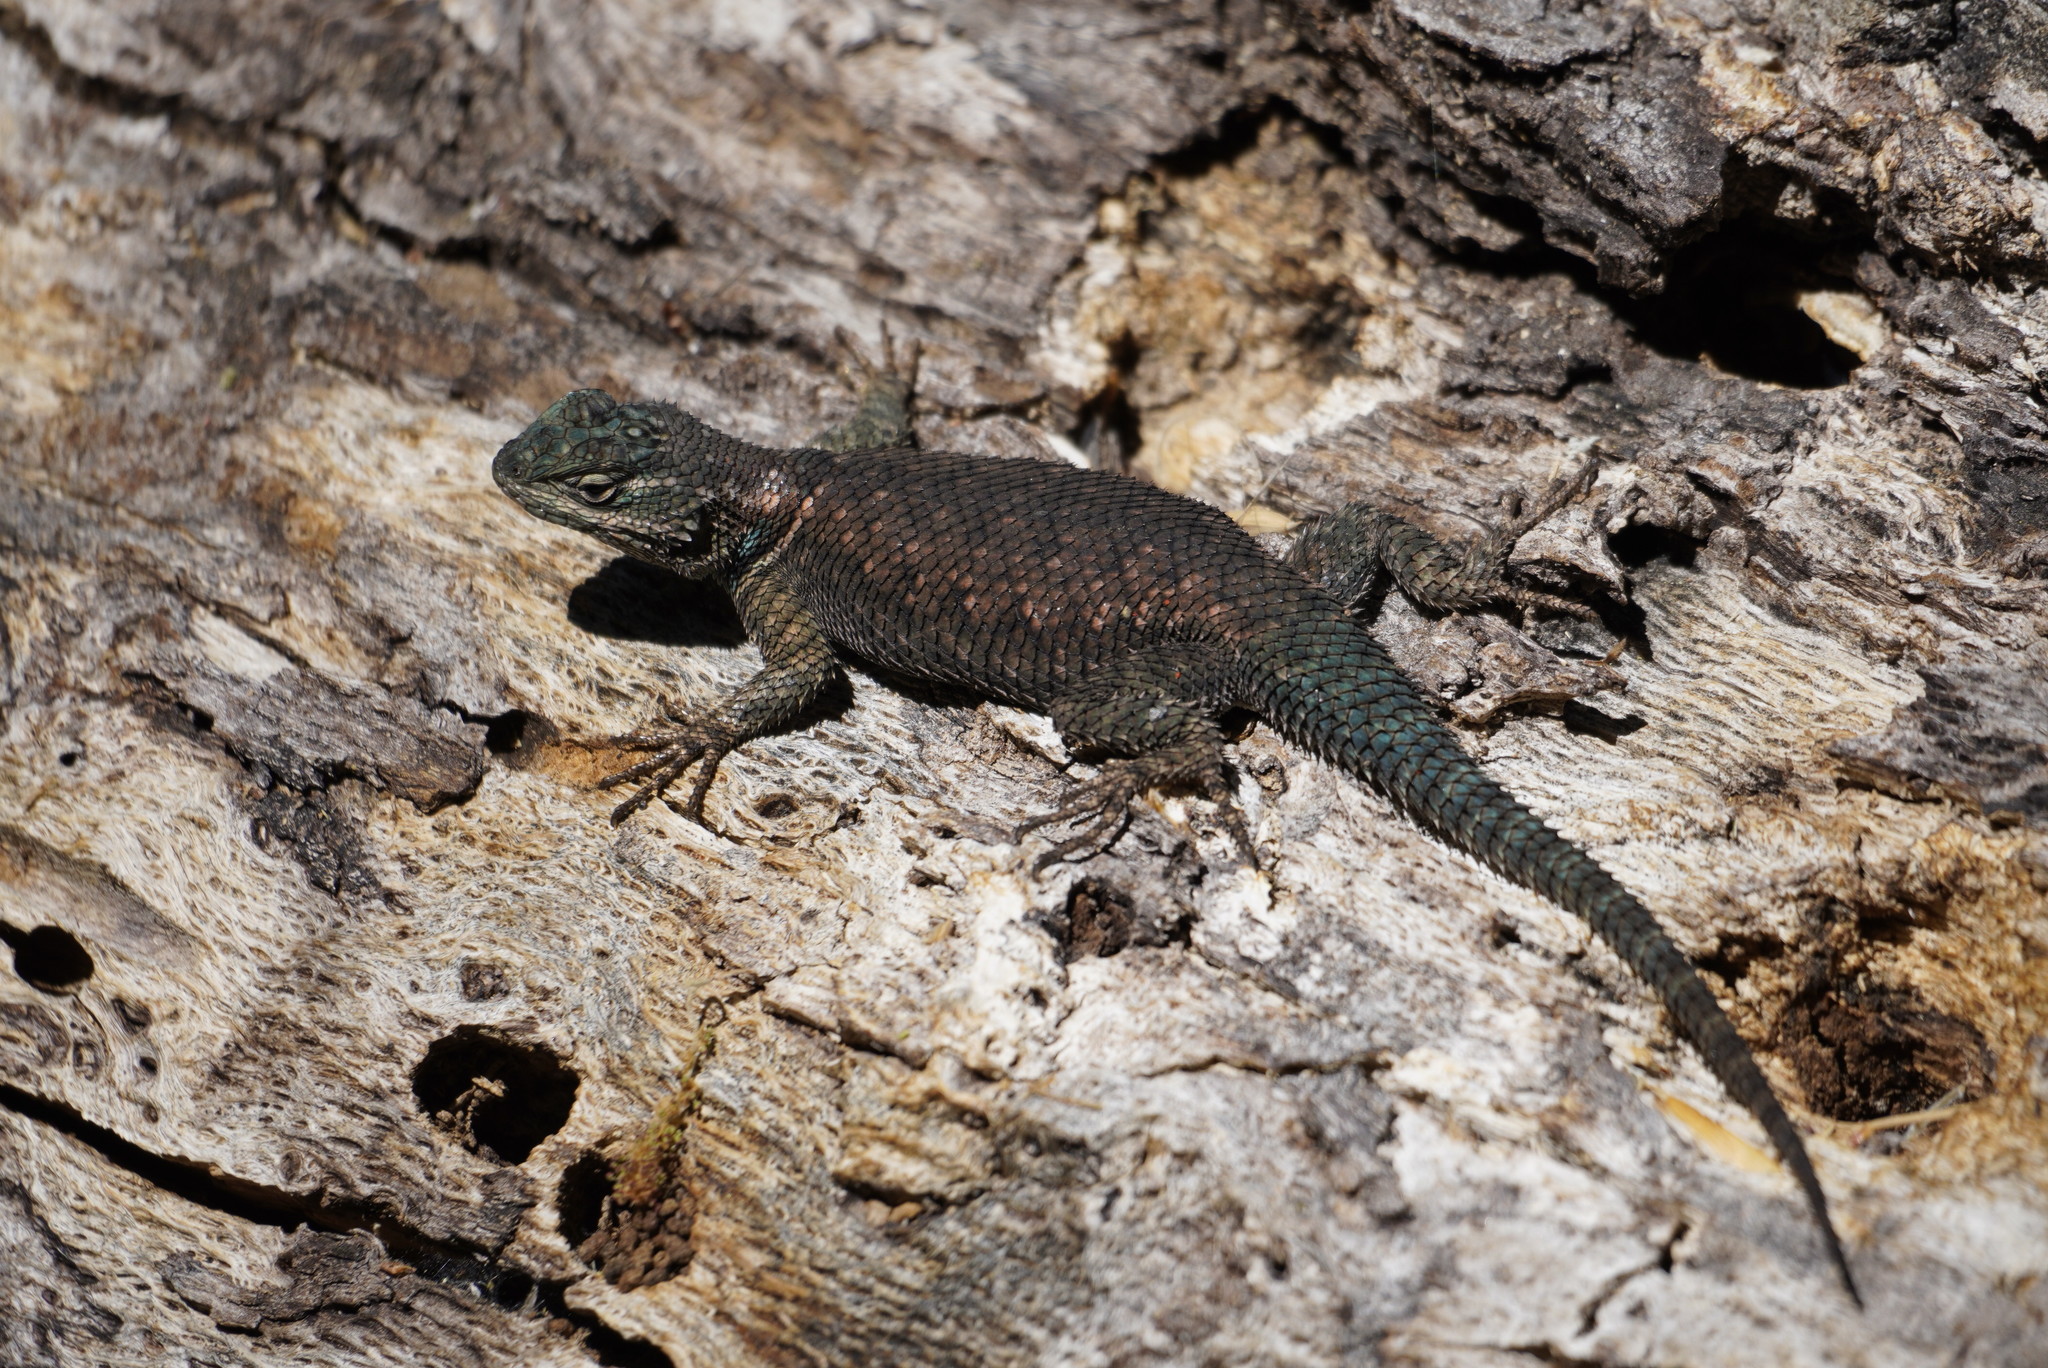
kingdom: Animalia
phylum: Chordata
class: Squamata
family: Phrynosomatidae
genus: Sceloporus
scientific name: Sceloporus jarrovii
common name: Yarrow's spiny lizard
